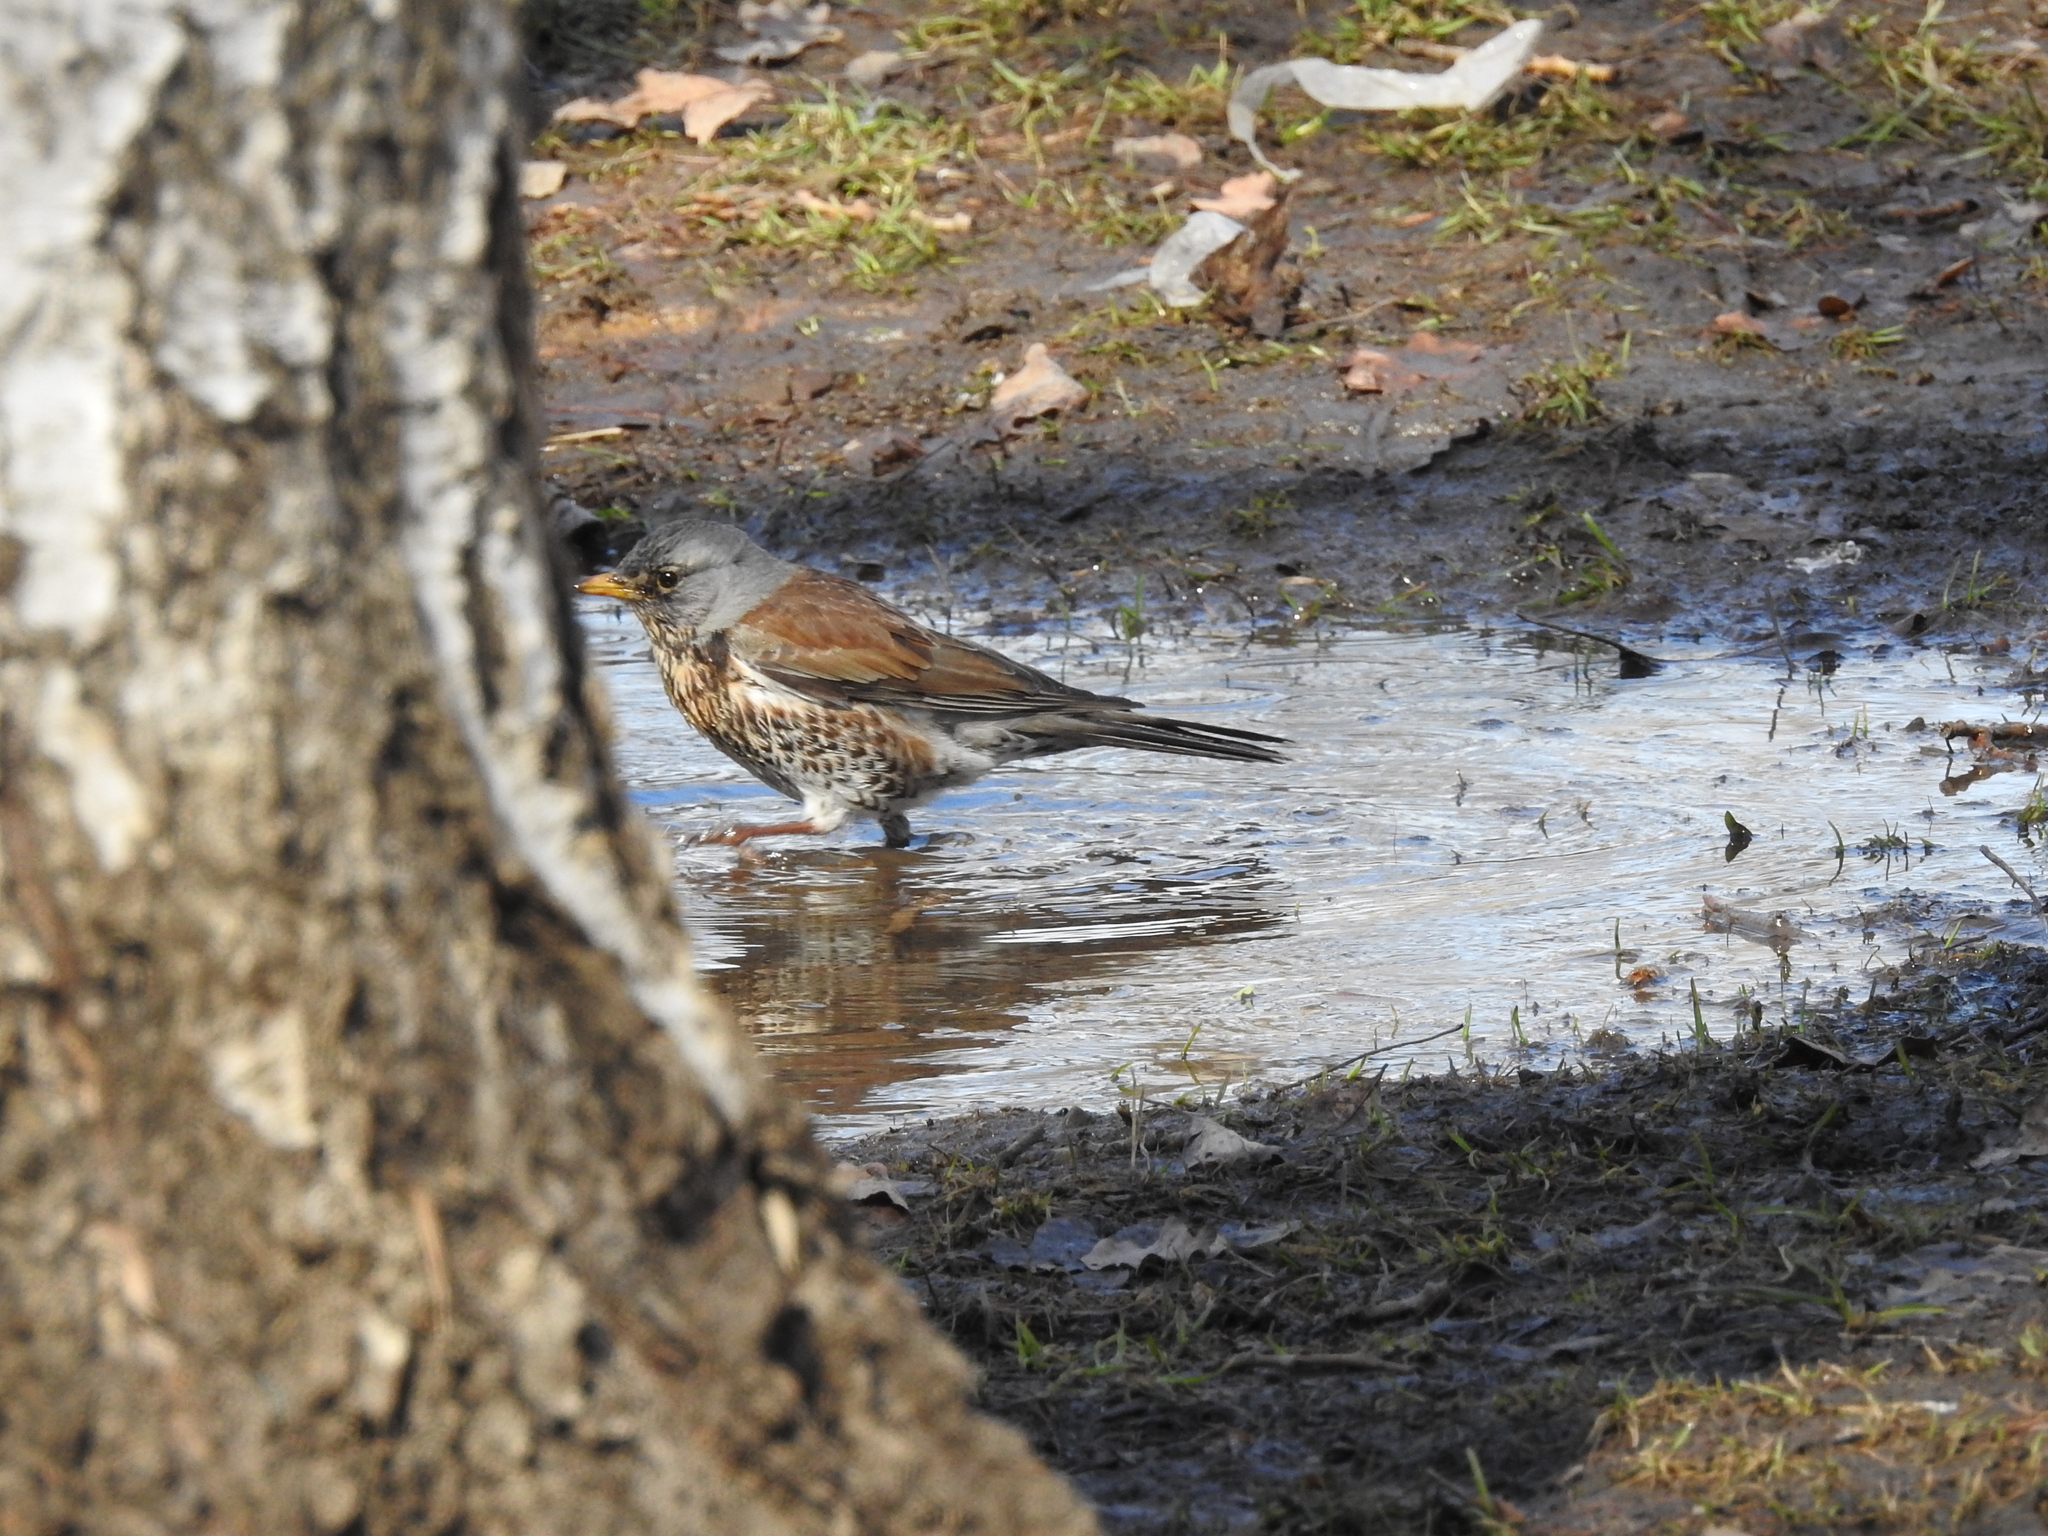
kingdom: Animalia
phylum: Chordata
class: Aves
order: Passeriformes
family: Turdidae
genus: Turdus
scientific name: Turdus pilaris
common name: Fieldfare
